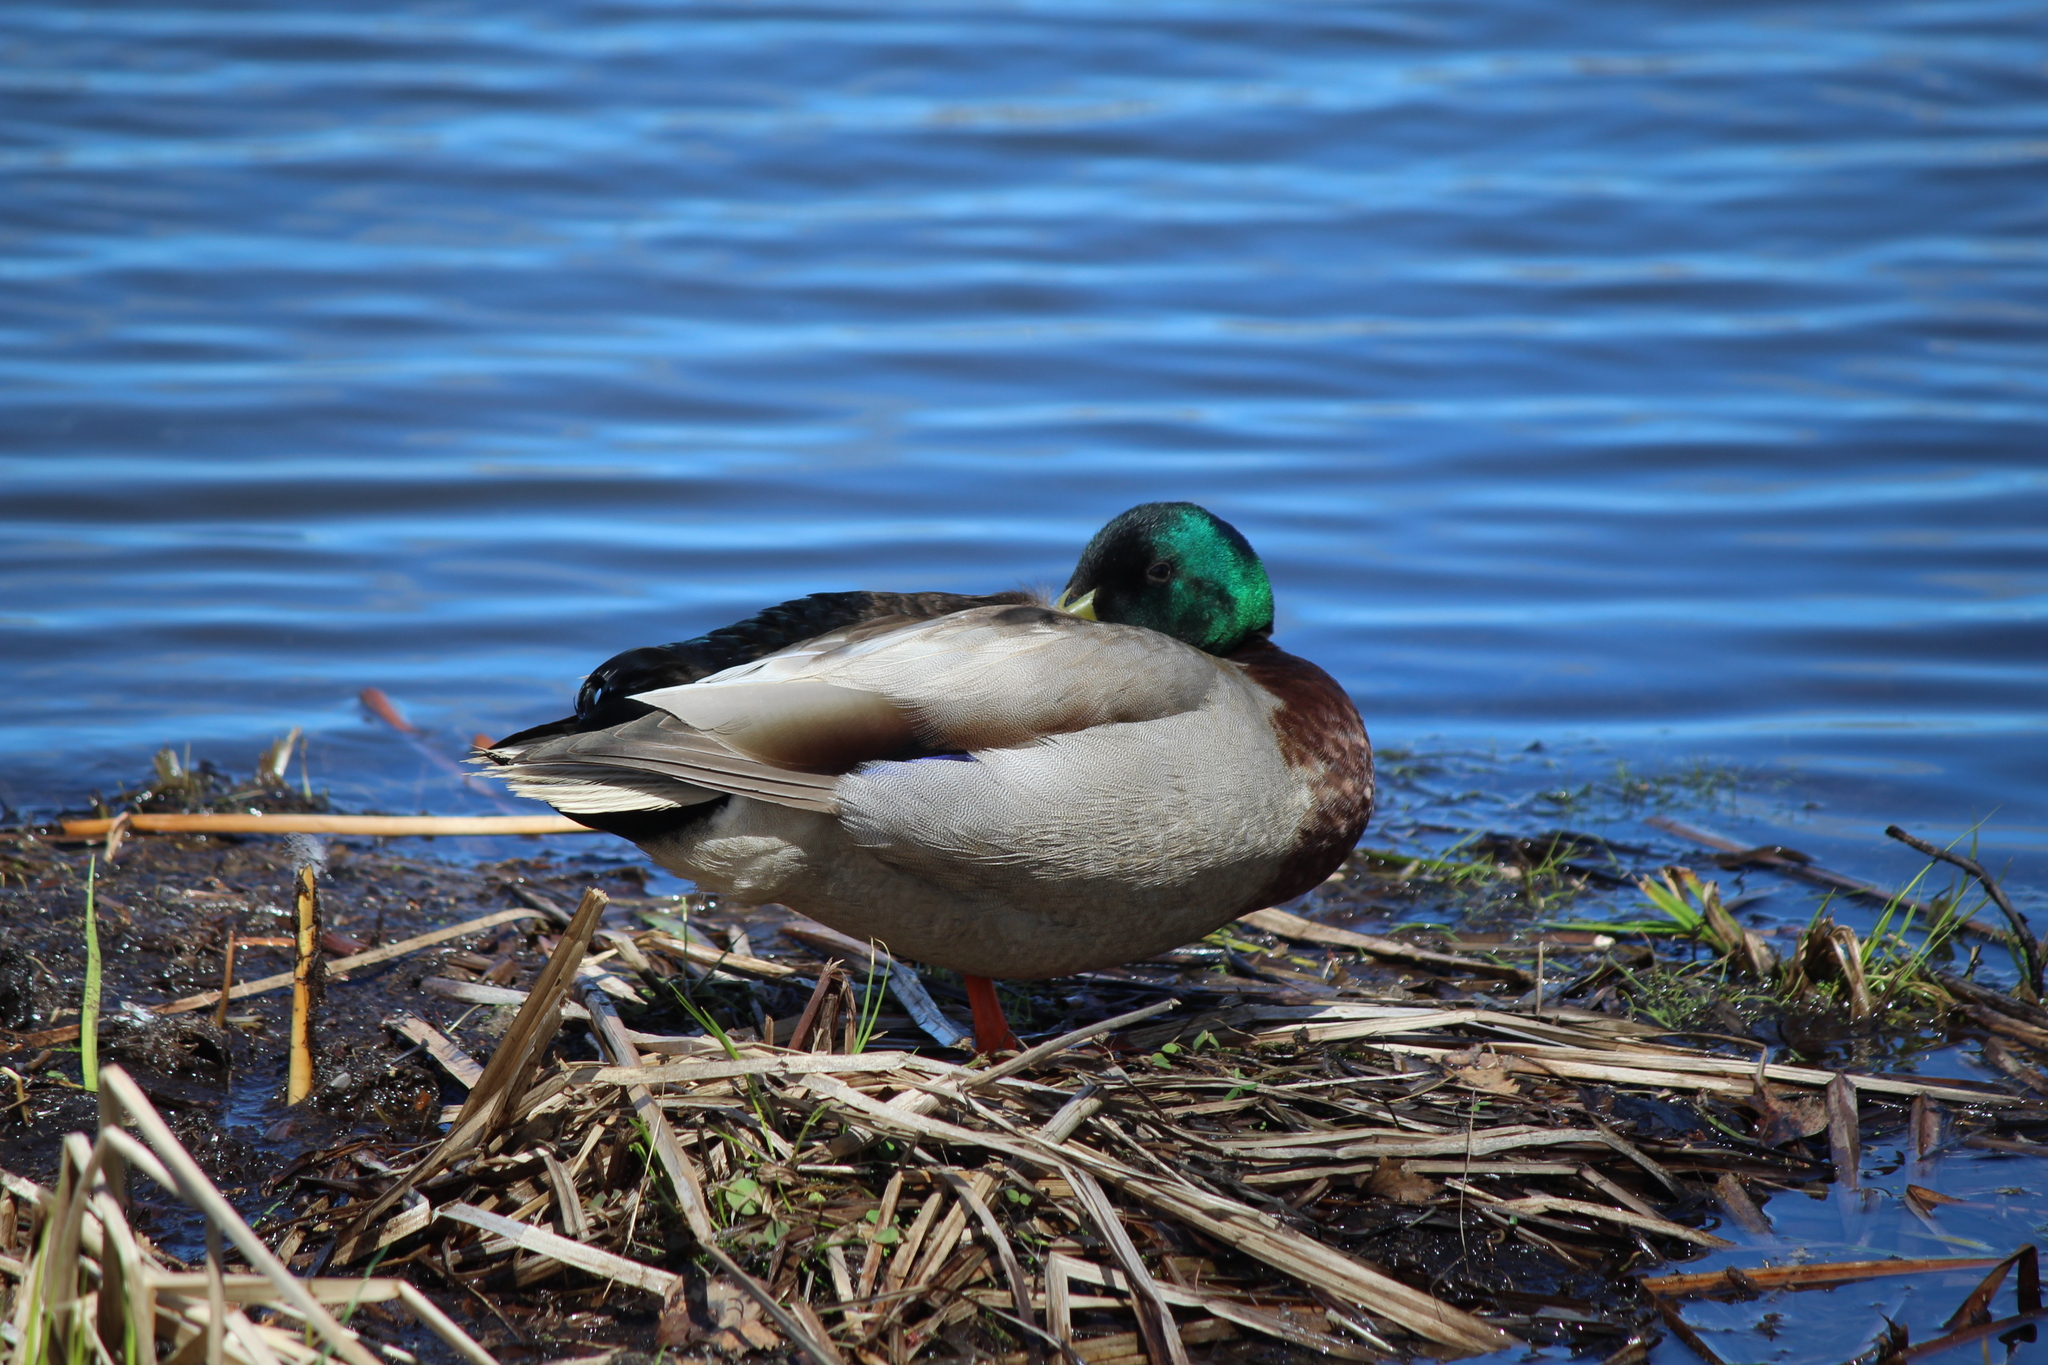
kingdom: Animalia
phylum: Chordata
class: Aves
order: Anseriformes
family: Anatidae
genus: Anas
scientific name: Anas platyrhynchos
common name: Mallard
